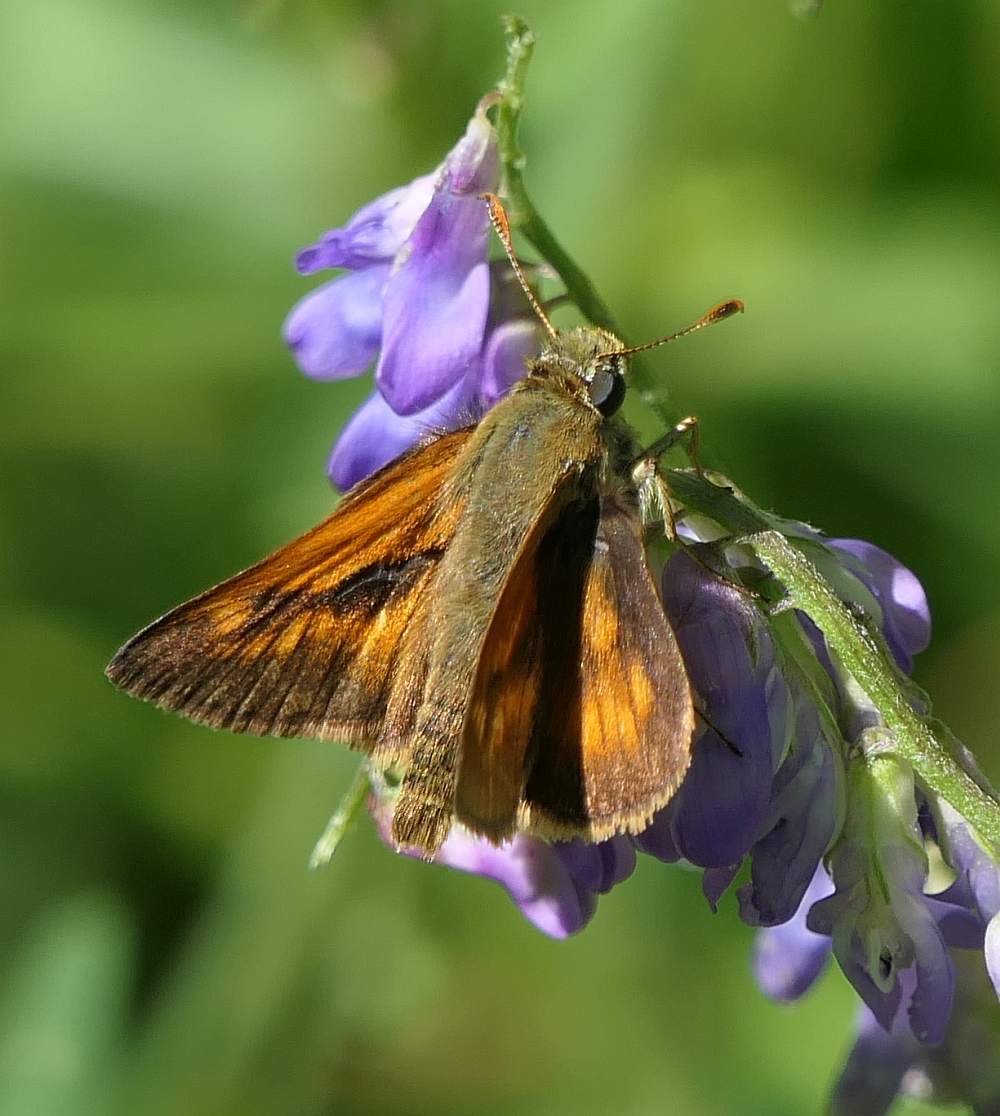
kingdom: Animalia
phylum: Arthropoda
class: Insecta
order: Lepidoptera
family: Hesperiidae
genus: Polites
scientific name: Polites mystic
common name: Long dash
